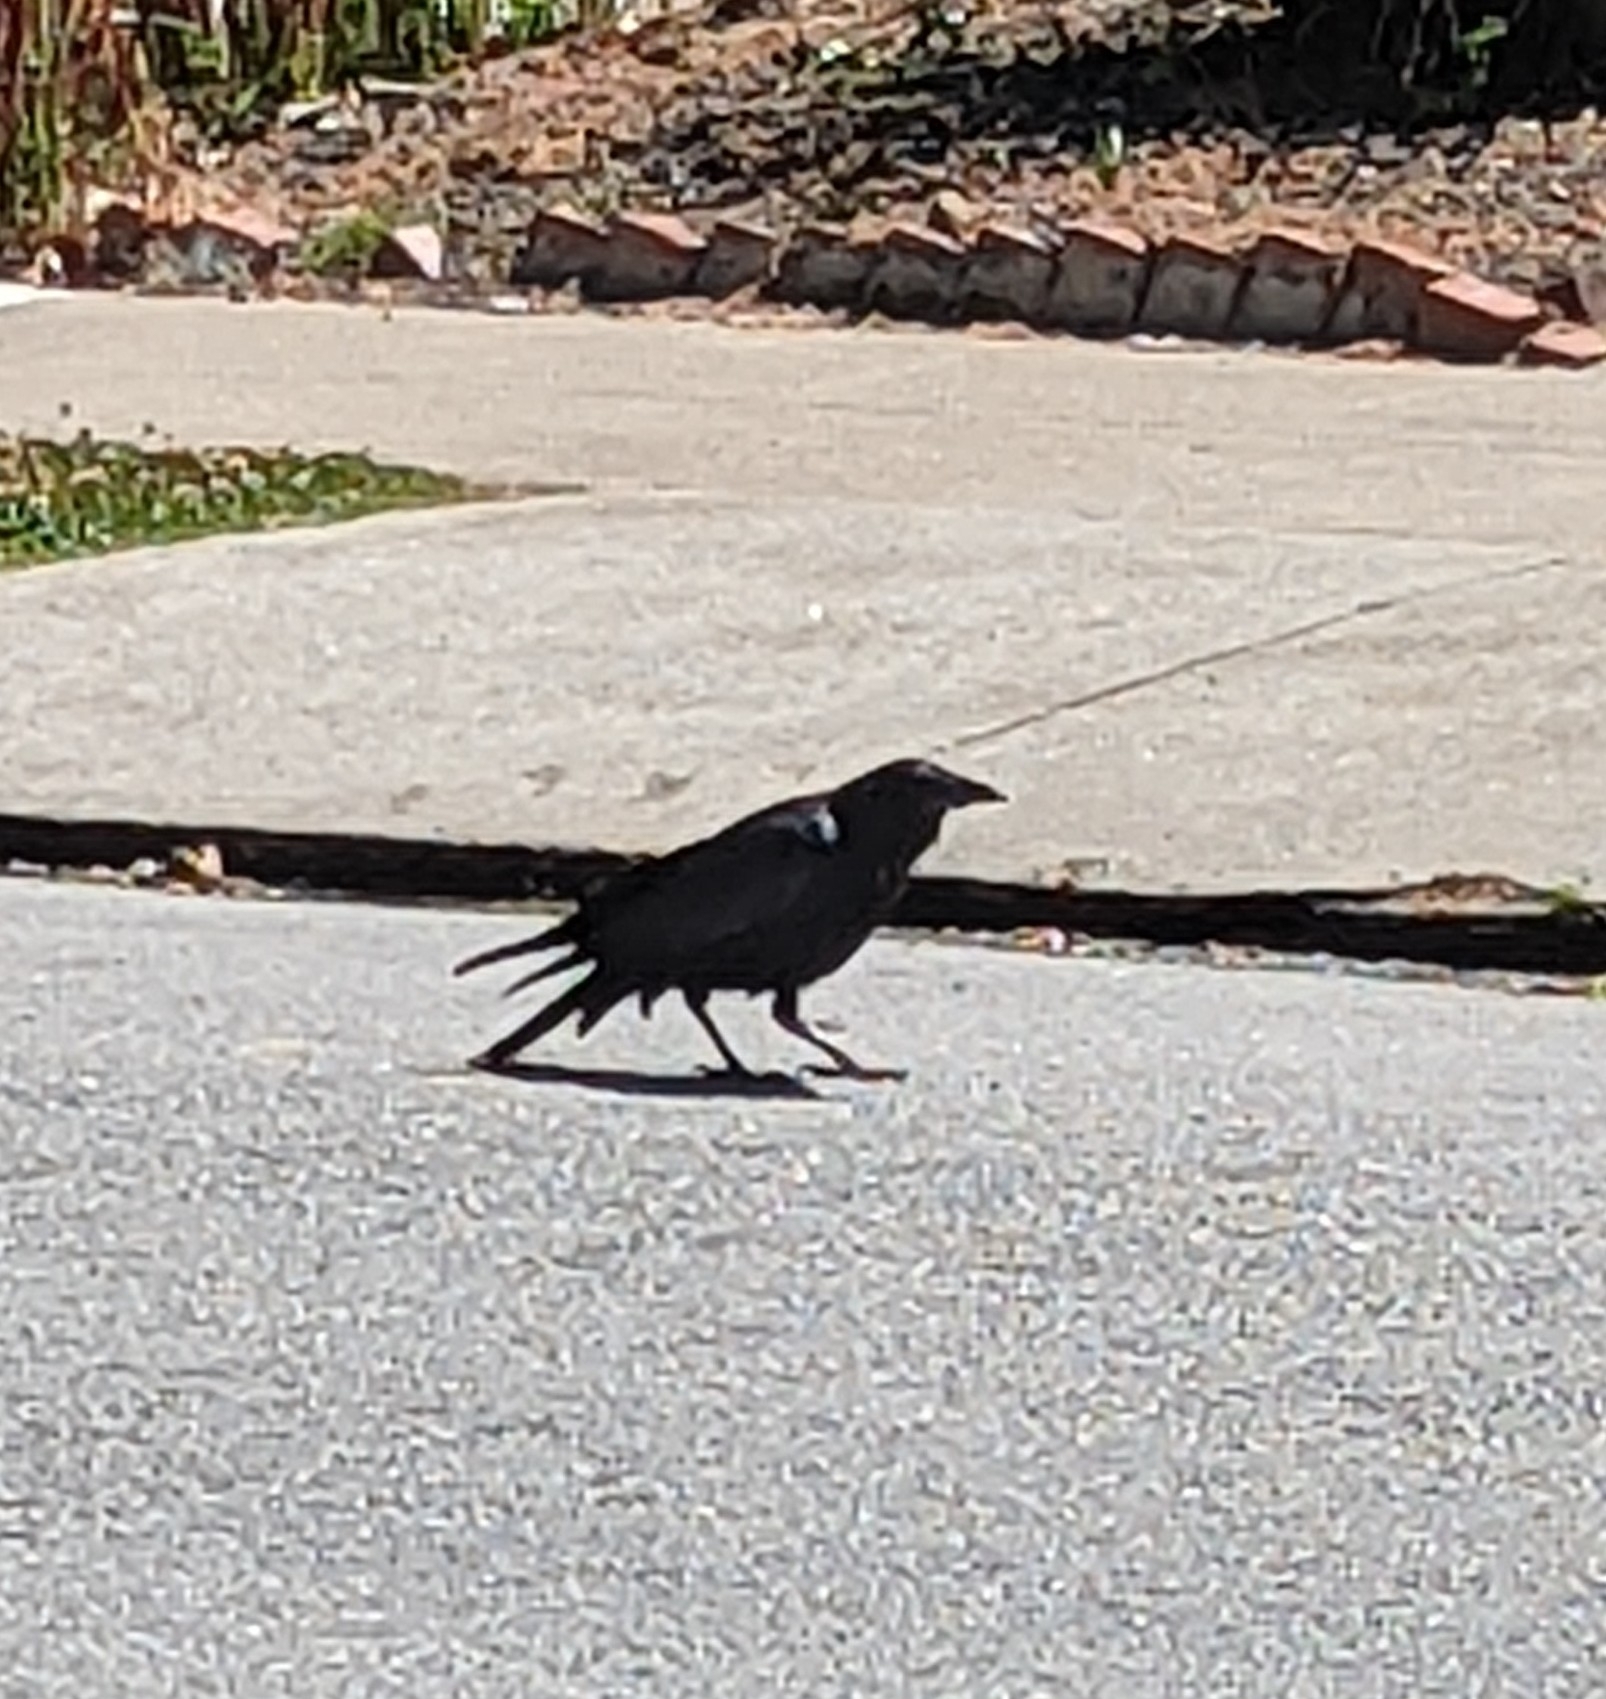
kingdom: Animalia
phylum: Chordata
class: Aves
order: Passeriformes
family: Corvidae
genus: Corvus
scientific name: Corvus brachyrhynchos
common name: American crow
